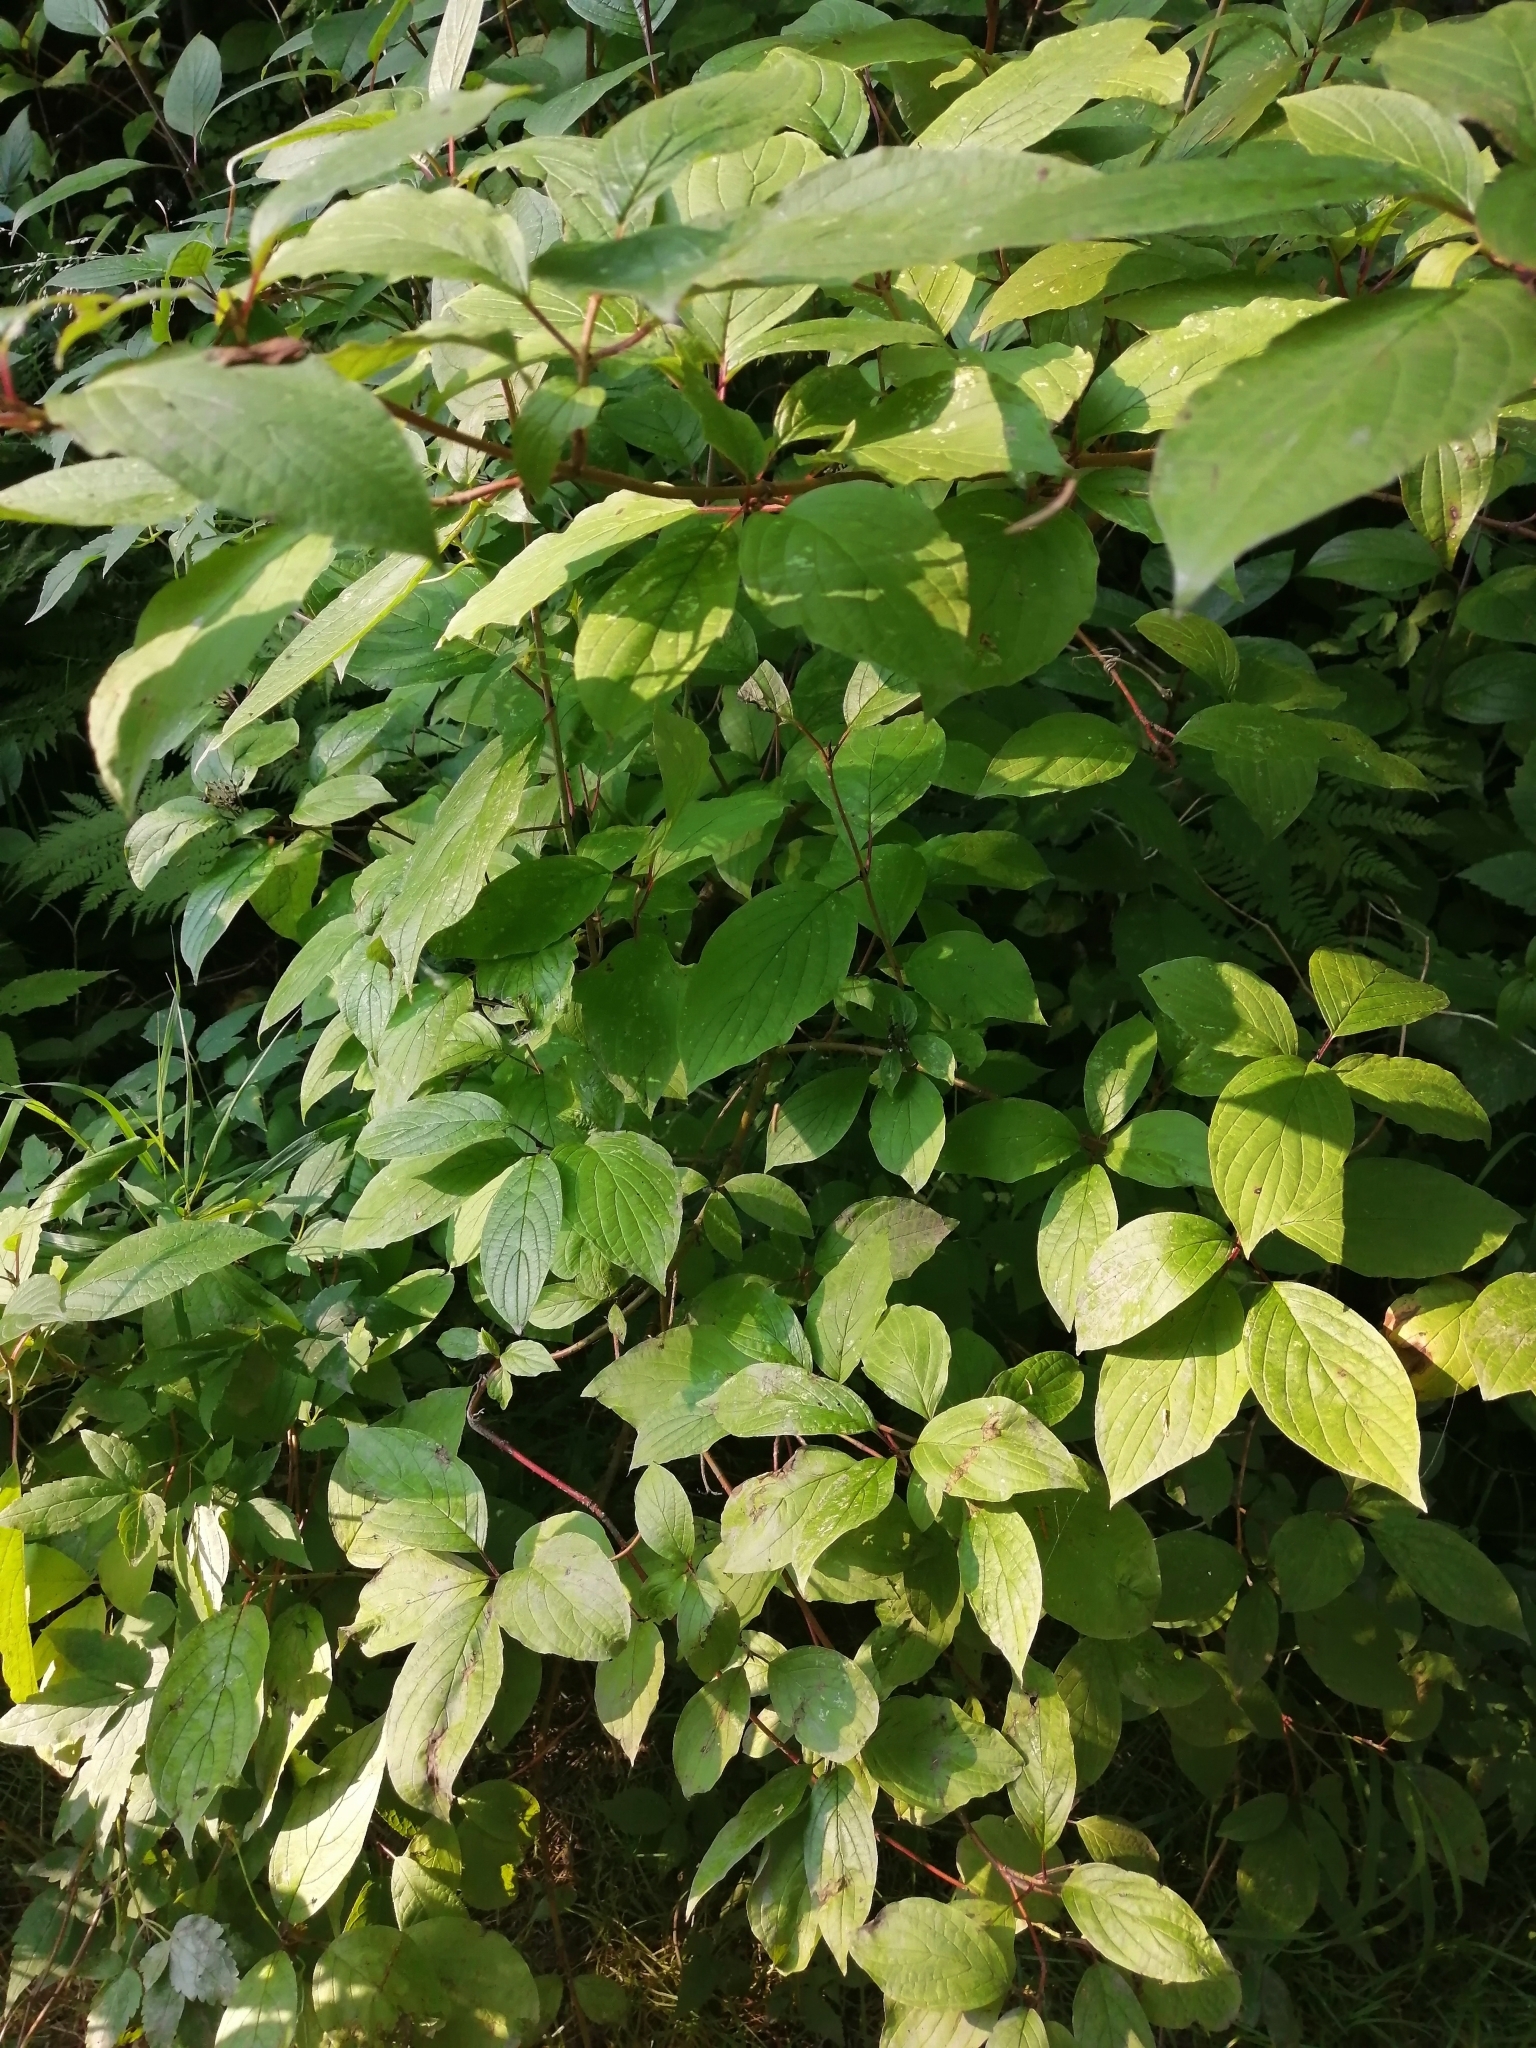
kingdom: Plantae
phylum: Tracheophyta
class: Magnoliopsida
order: Cornales
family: Cornaceae
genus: Cornus
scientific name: Cornus alba
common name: White dogwood
